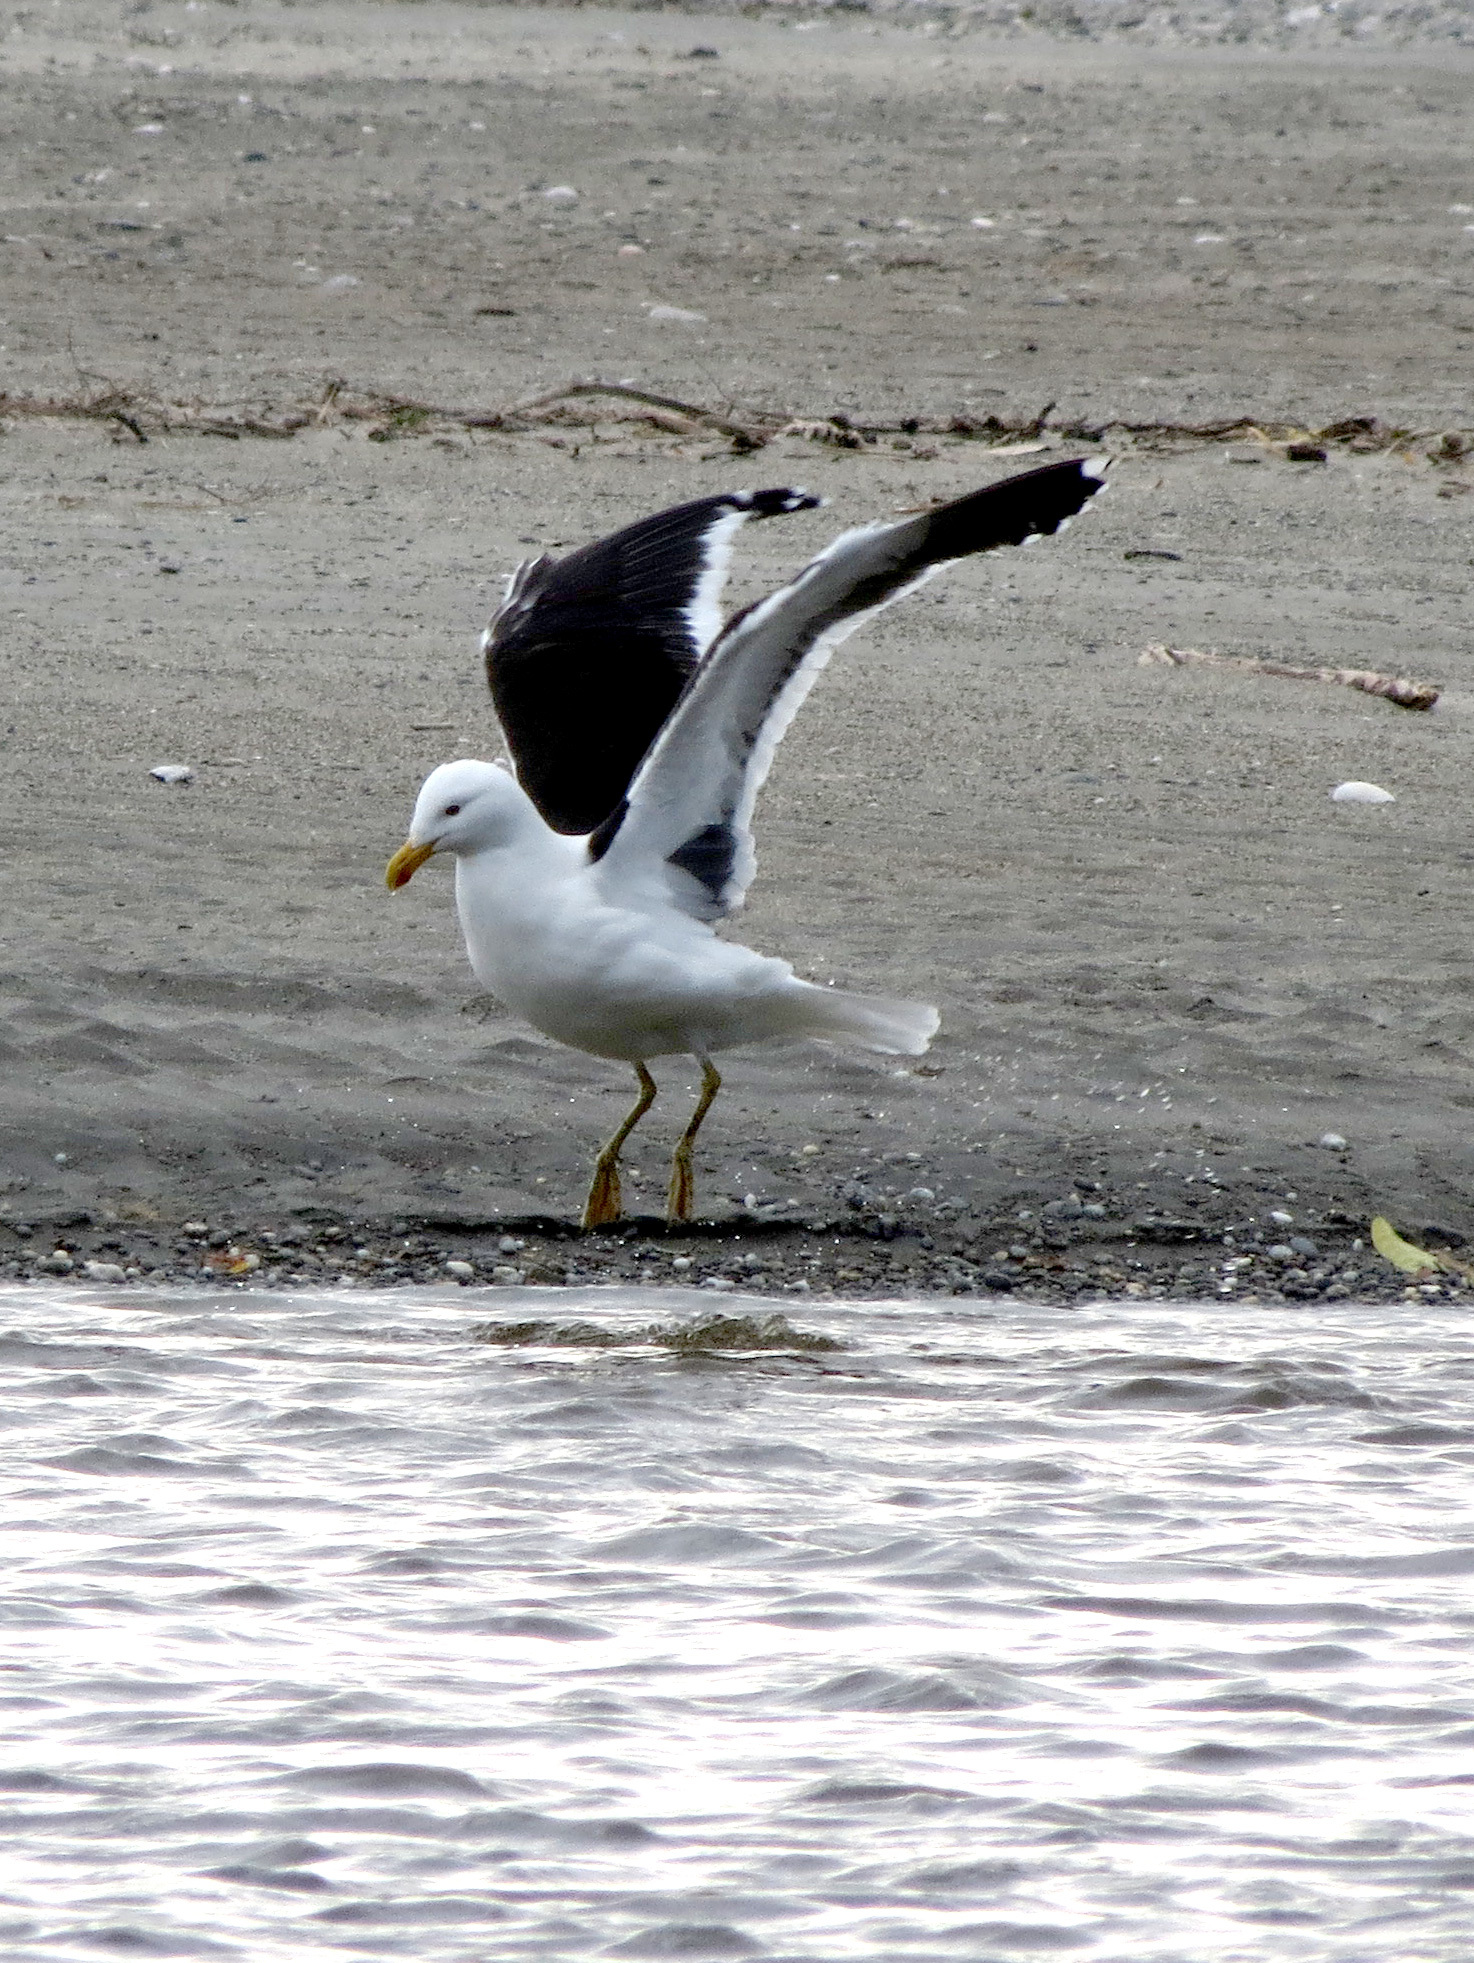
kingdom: Animalia
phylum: Chordata
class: Aves
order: Charadriiformes
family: Laridae
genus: Larus
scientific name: Larus dominicanus
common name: Kelp gull
